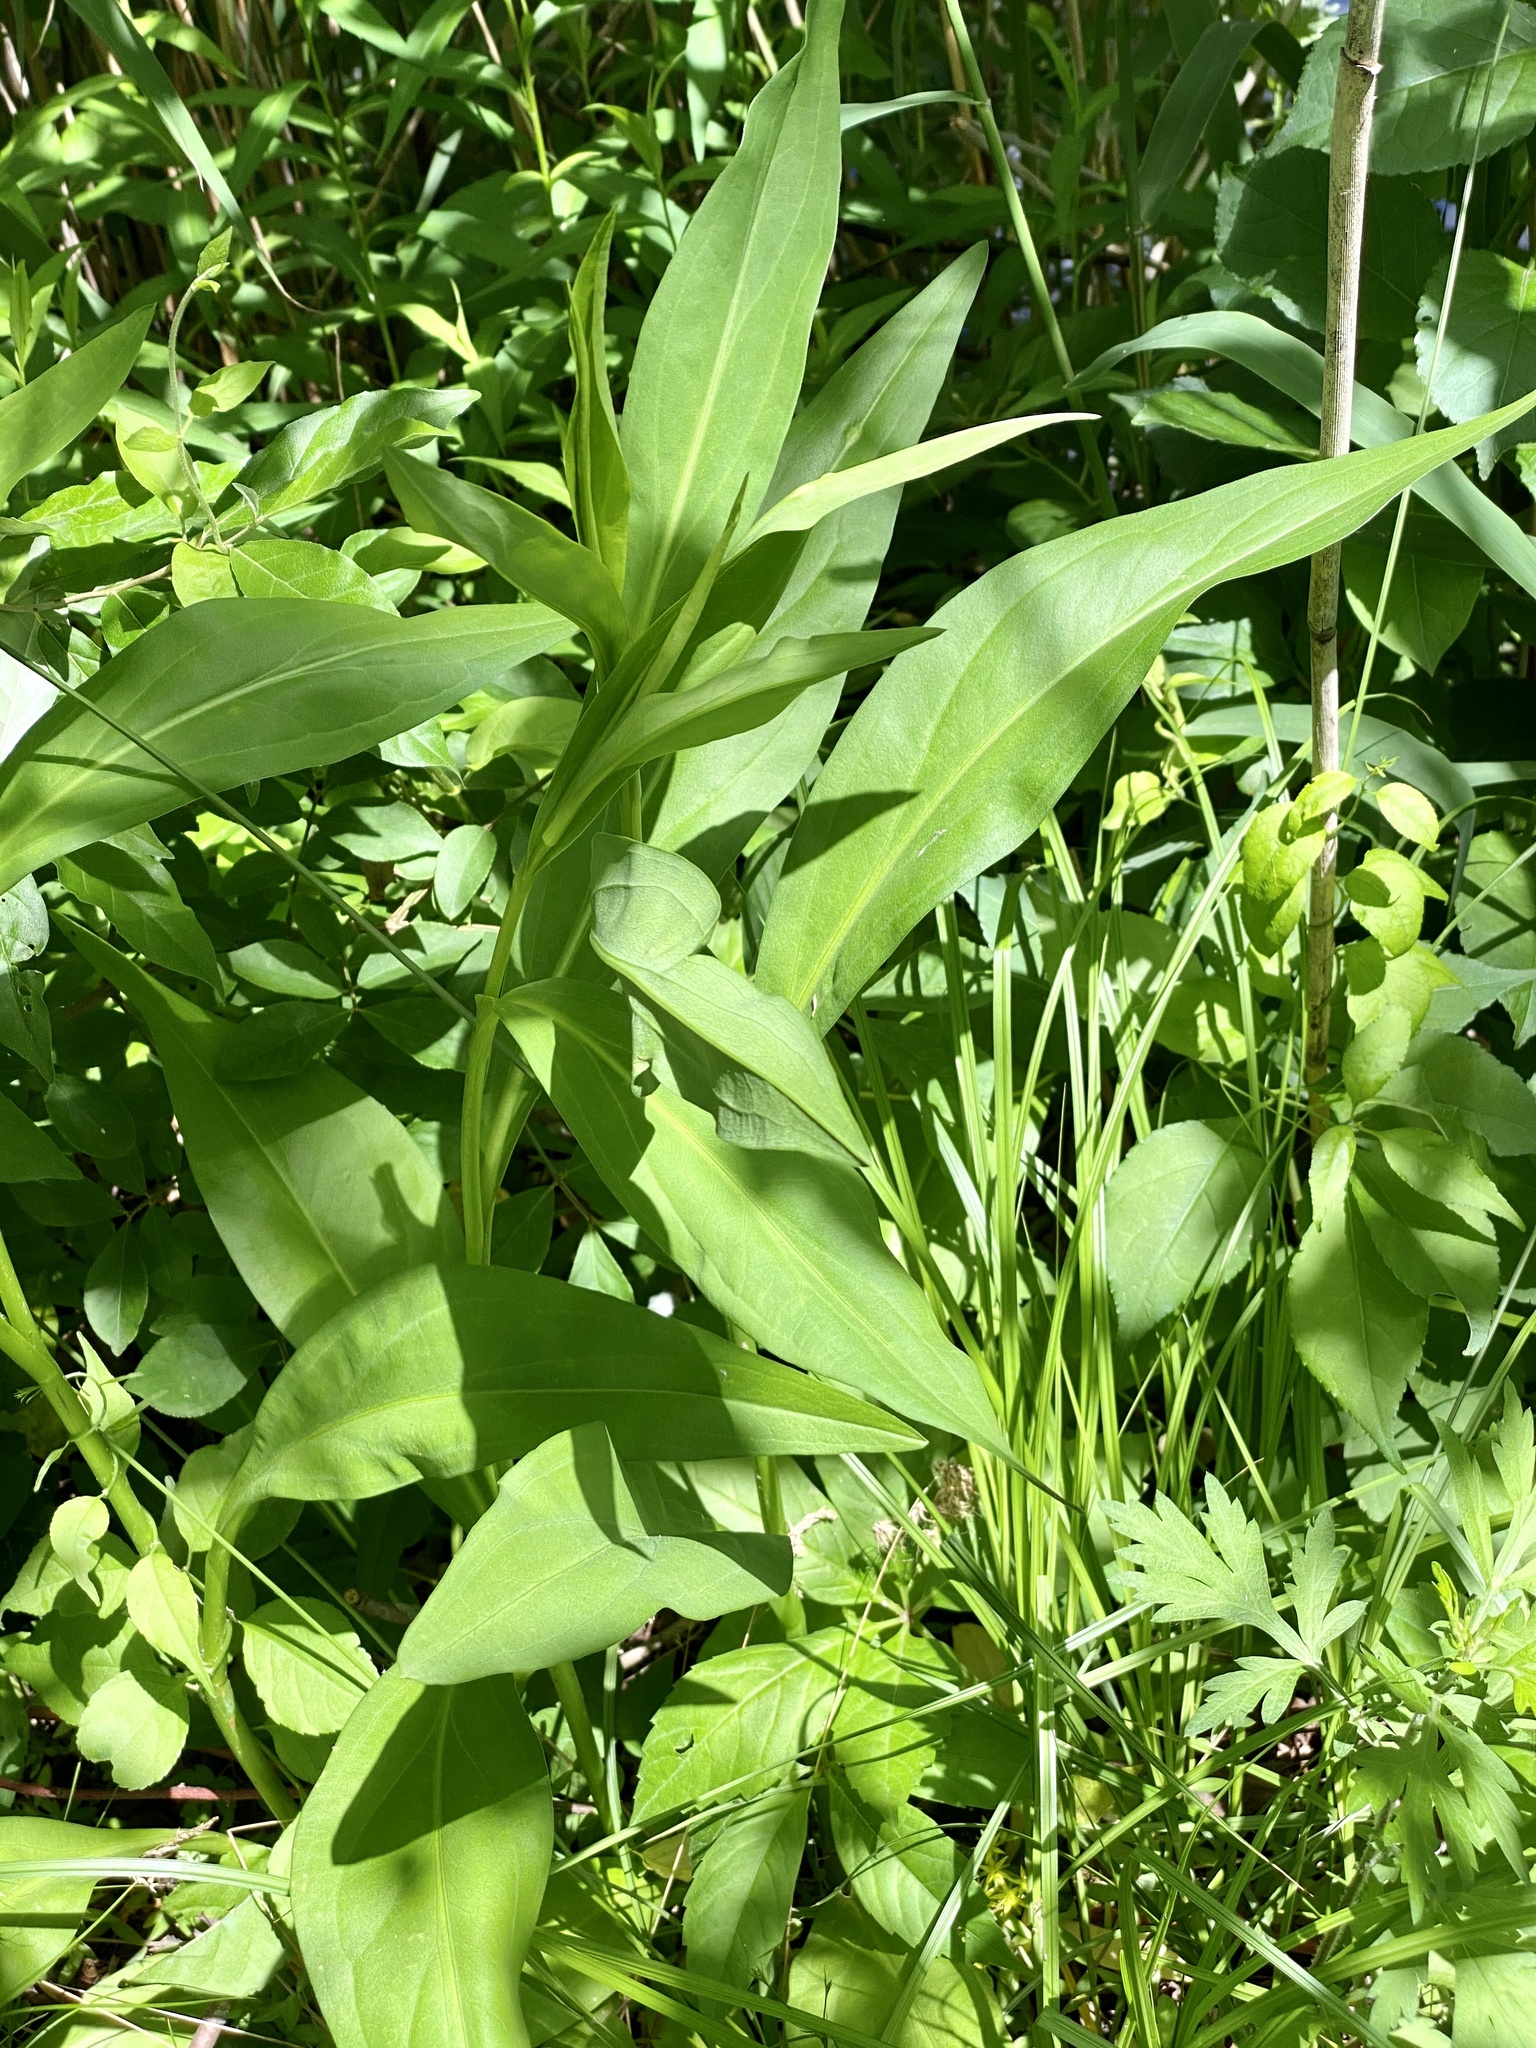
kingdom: Plantae
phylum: Tracheophyta
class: Magnoliopsida
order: Asterales
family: Asteraceae
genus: Solidago
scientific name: Solidago sempervirens
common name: Salt-marsh goldenrod
